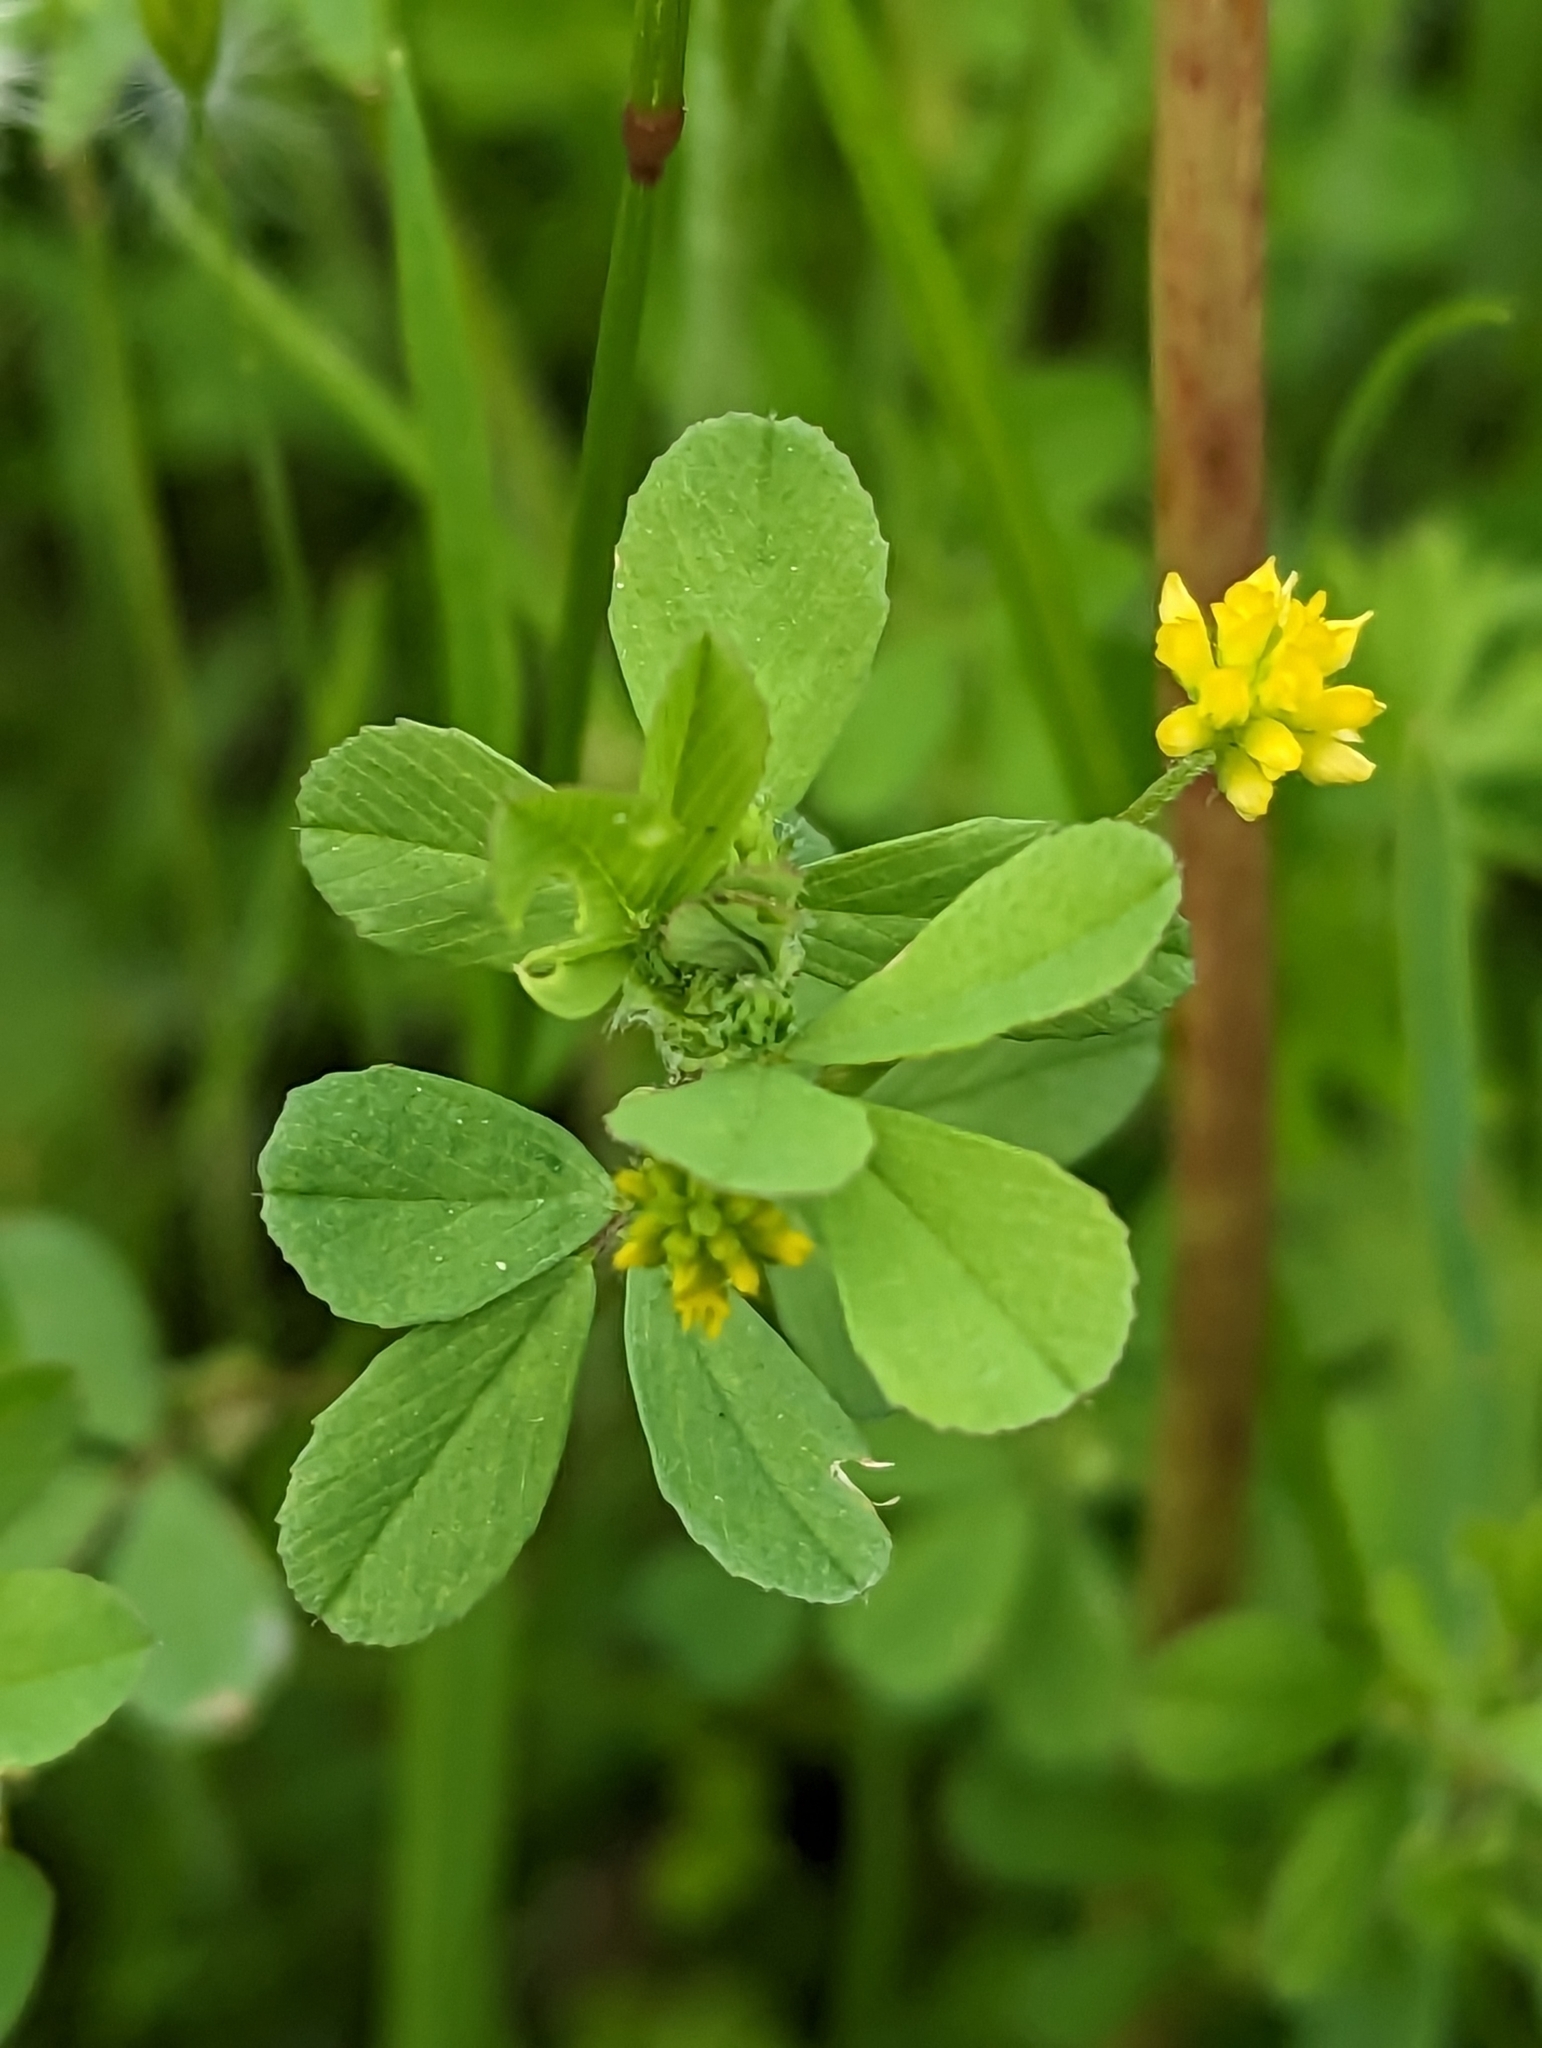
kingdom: Plantae
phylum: Tracheophyta
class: Magnoliopsida
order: Fabales
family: Fabaceae
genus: Trifolium
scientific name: Trifolium dubium
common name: Suckling clover
